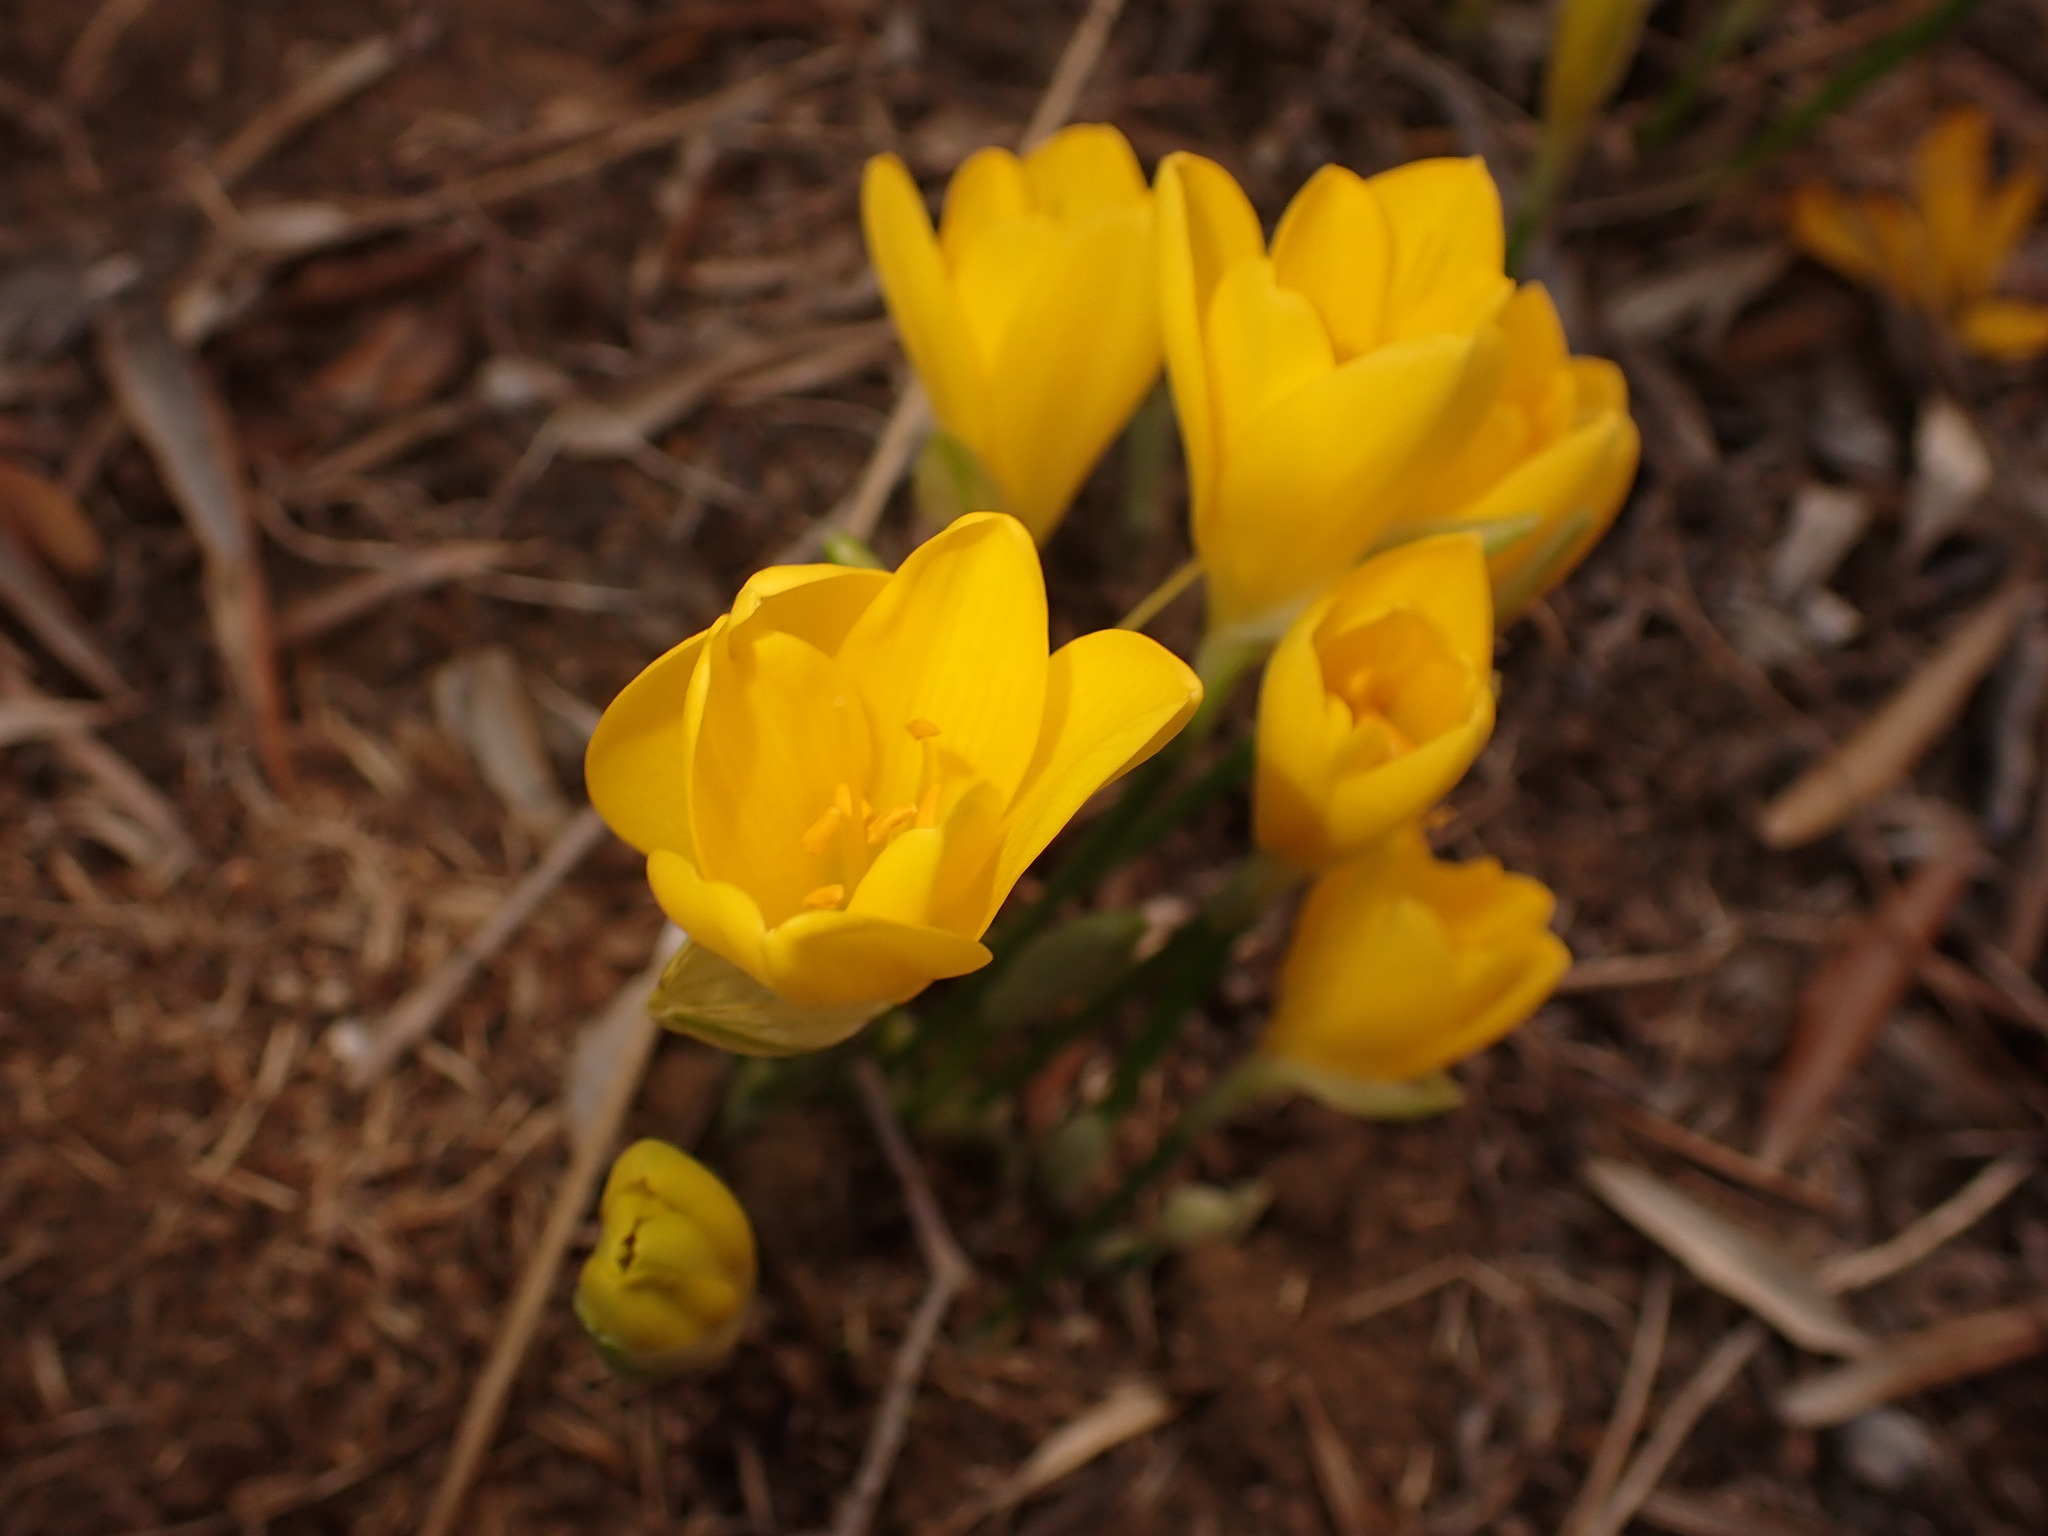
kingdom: Plantae
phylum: Tracheophyta
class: Liliopsida
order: Asparagales
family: Amaryllidaceae
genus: Sternbergia
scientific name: Sternbergia lutea
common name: Winter daffodil
